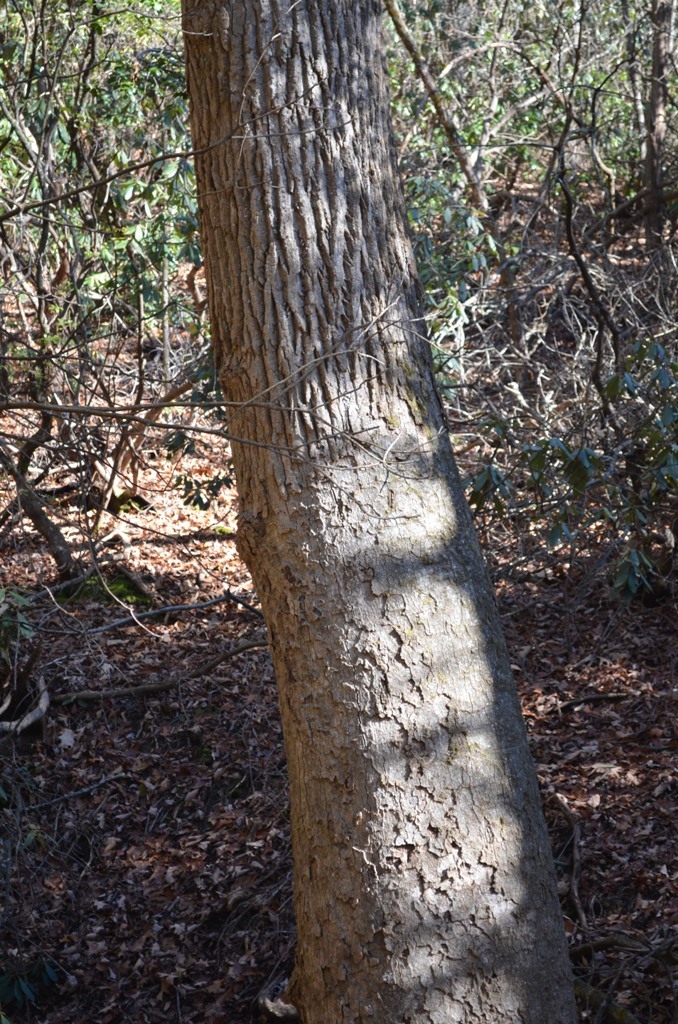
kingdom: Fungi
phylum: Basidiomycota
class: Agaricomycetes
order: Russulales
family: Stereaceae
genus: Acanthophysium
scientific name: Acanthophysium oakesii
